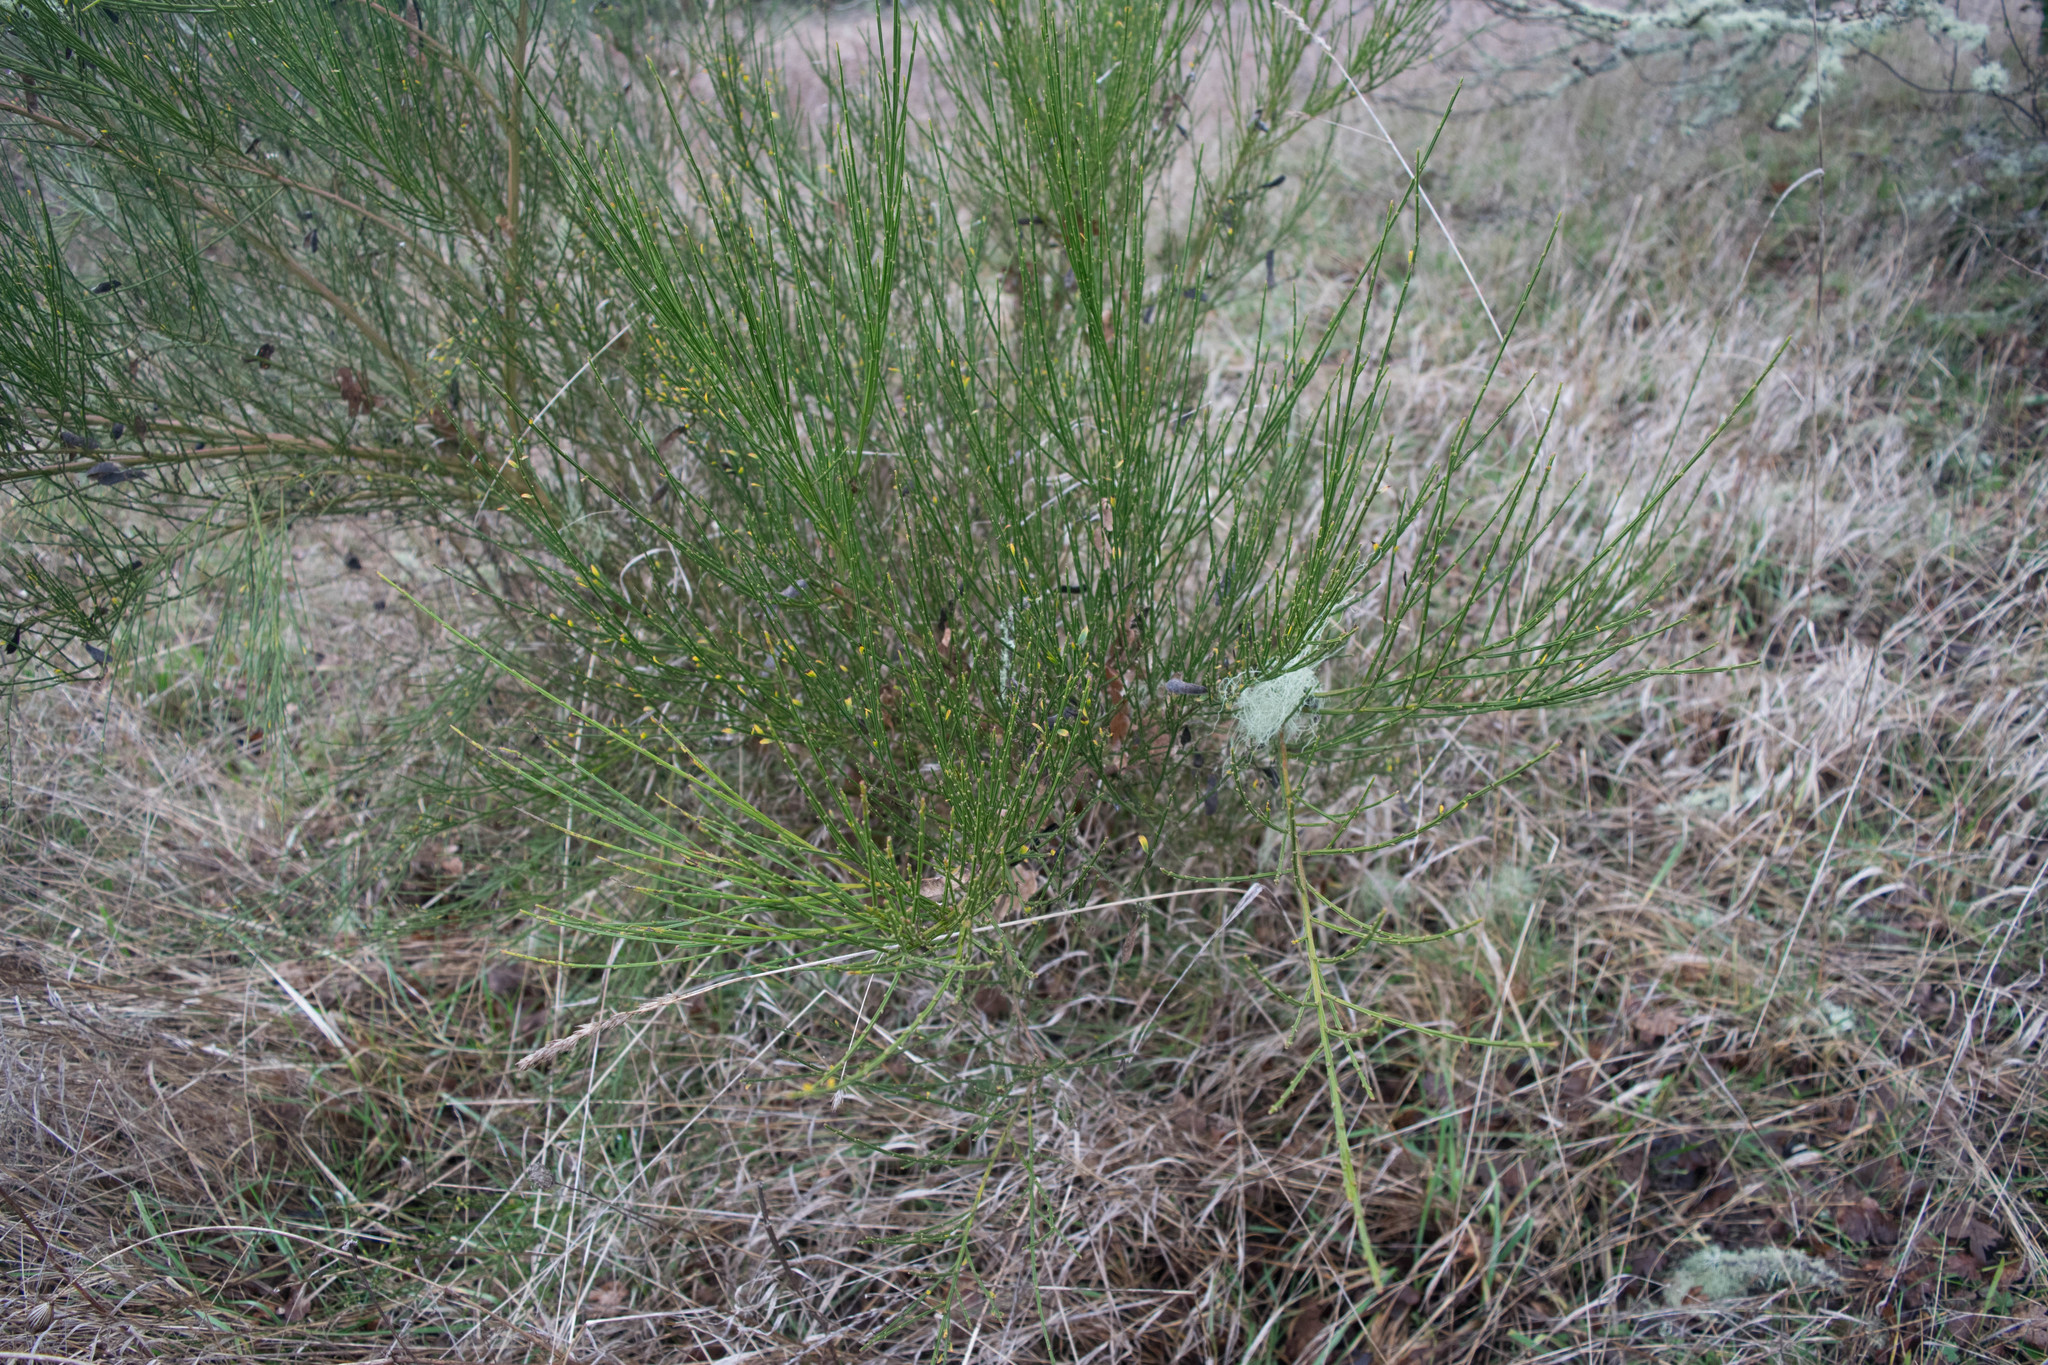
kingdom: Plantae
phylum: Tracheophyta
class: Magnoliopsida
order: Fabales
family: Fabaceae
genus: Cytisus
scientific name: Cytisus scoparius
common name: Scotch broom
